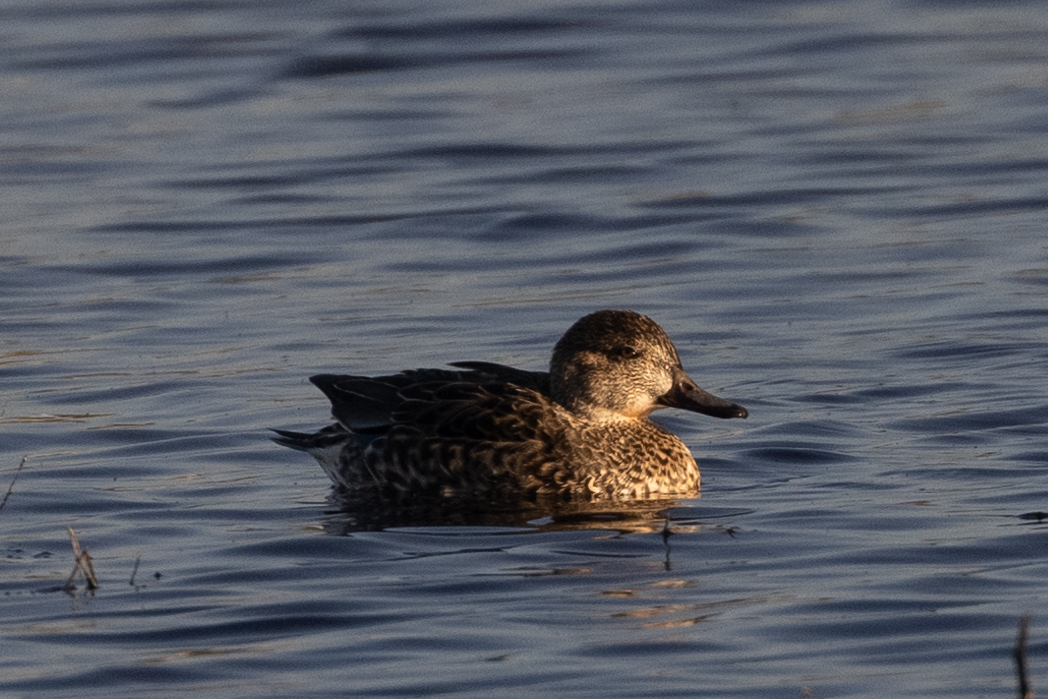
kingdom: Animalia
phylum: Chordata
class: Aves
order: Anseriformes
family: Anatidae
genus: Anas
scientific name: Anas crecca
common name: Eurasian teal
